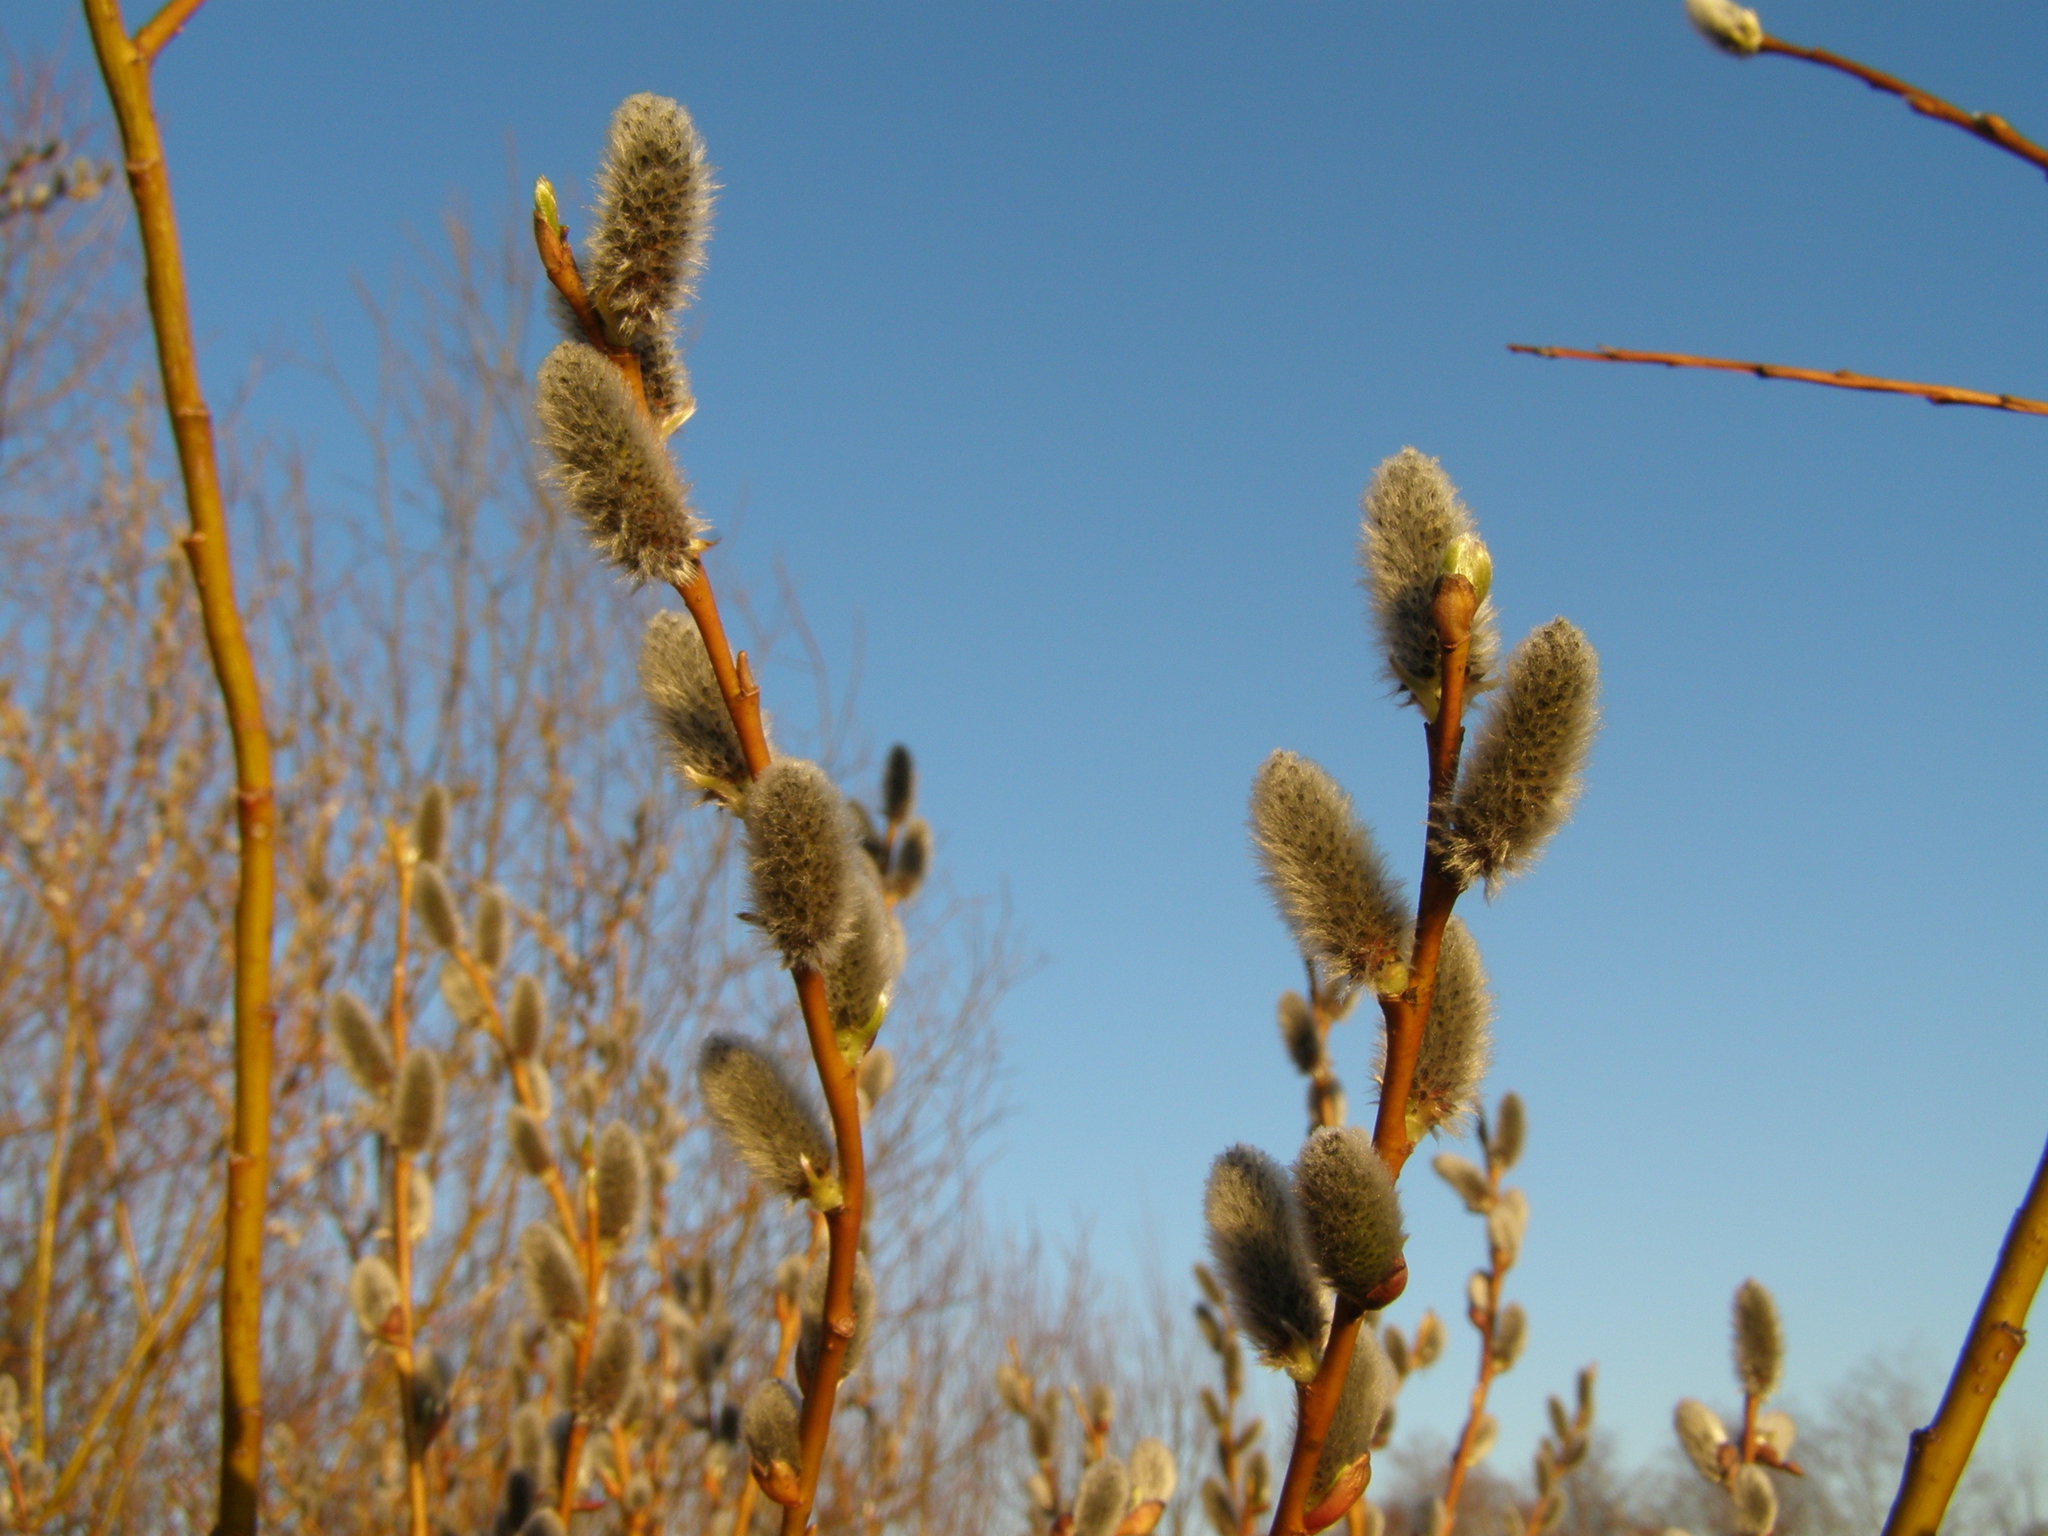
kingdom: Plantae
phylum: Tracheophyta
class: Magnoliopsida
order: Malpighiales
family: Salicaceae
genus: Salix
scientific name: Salix caprea
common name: Goat willow
